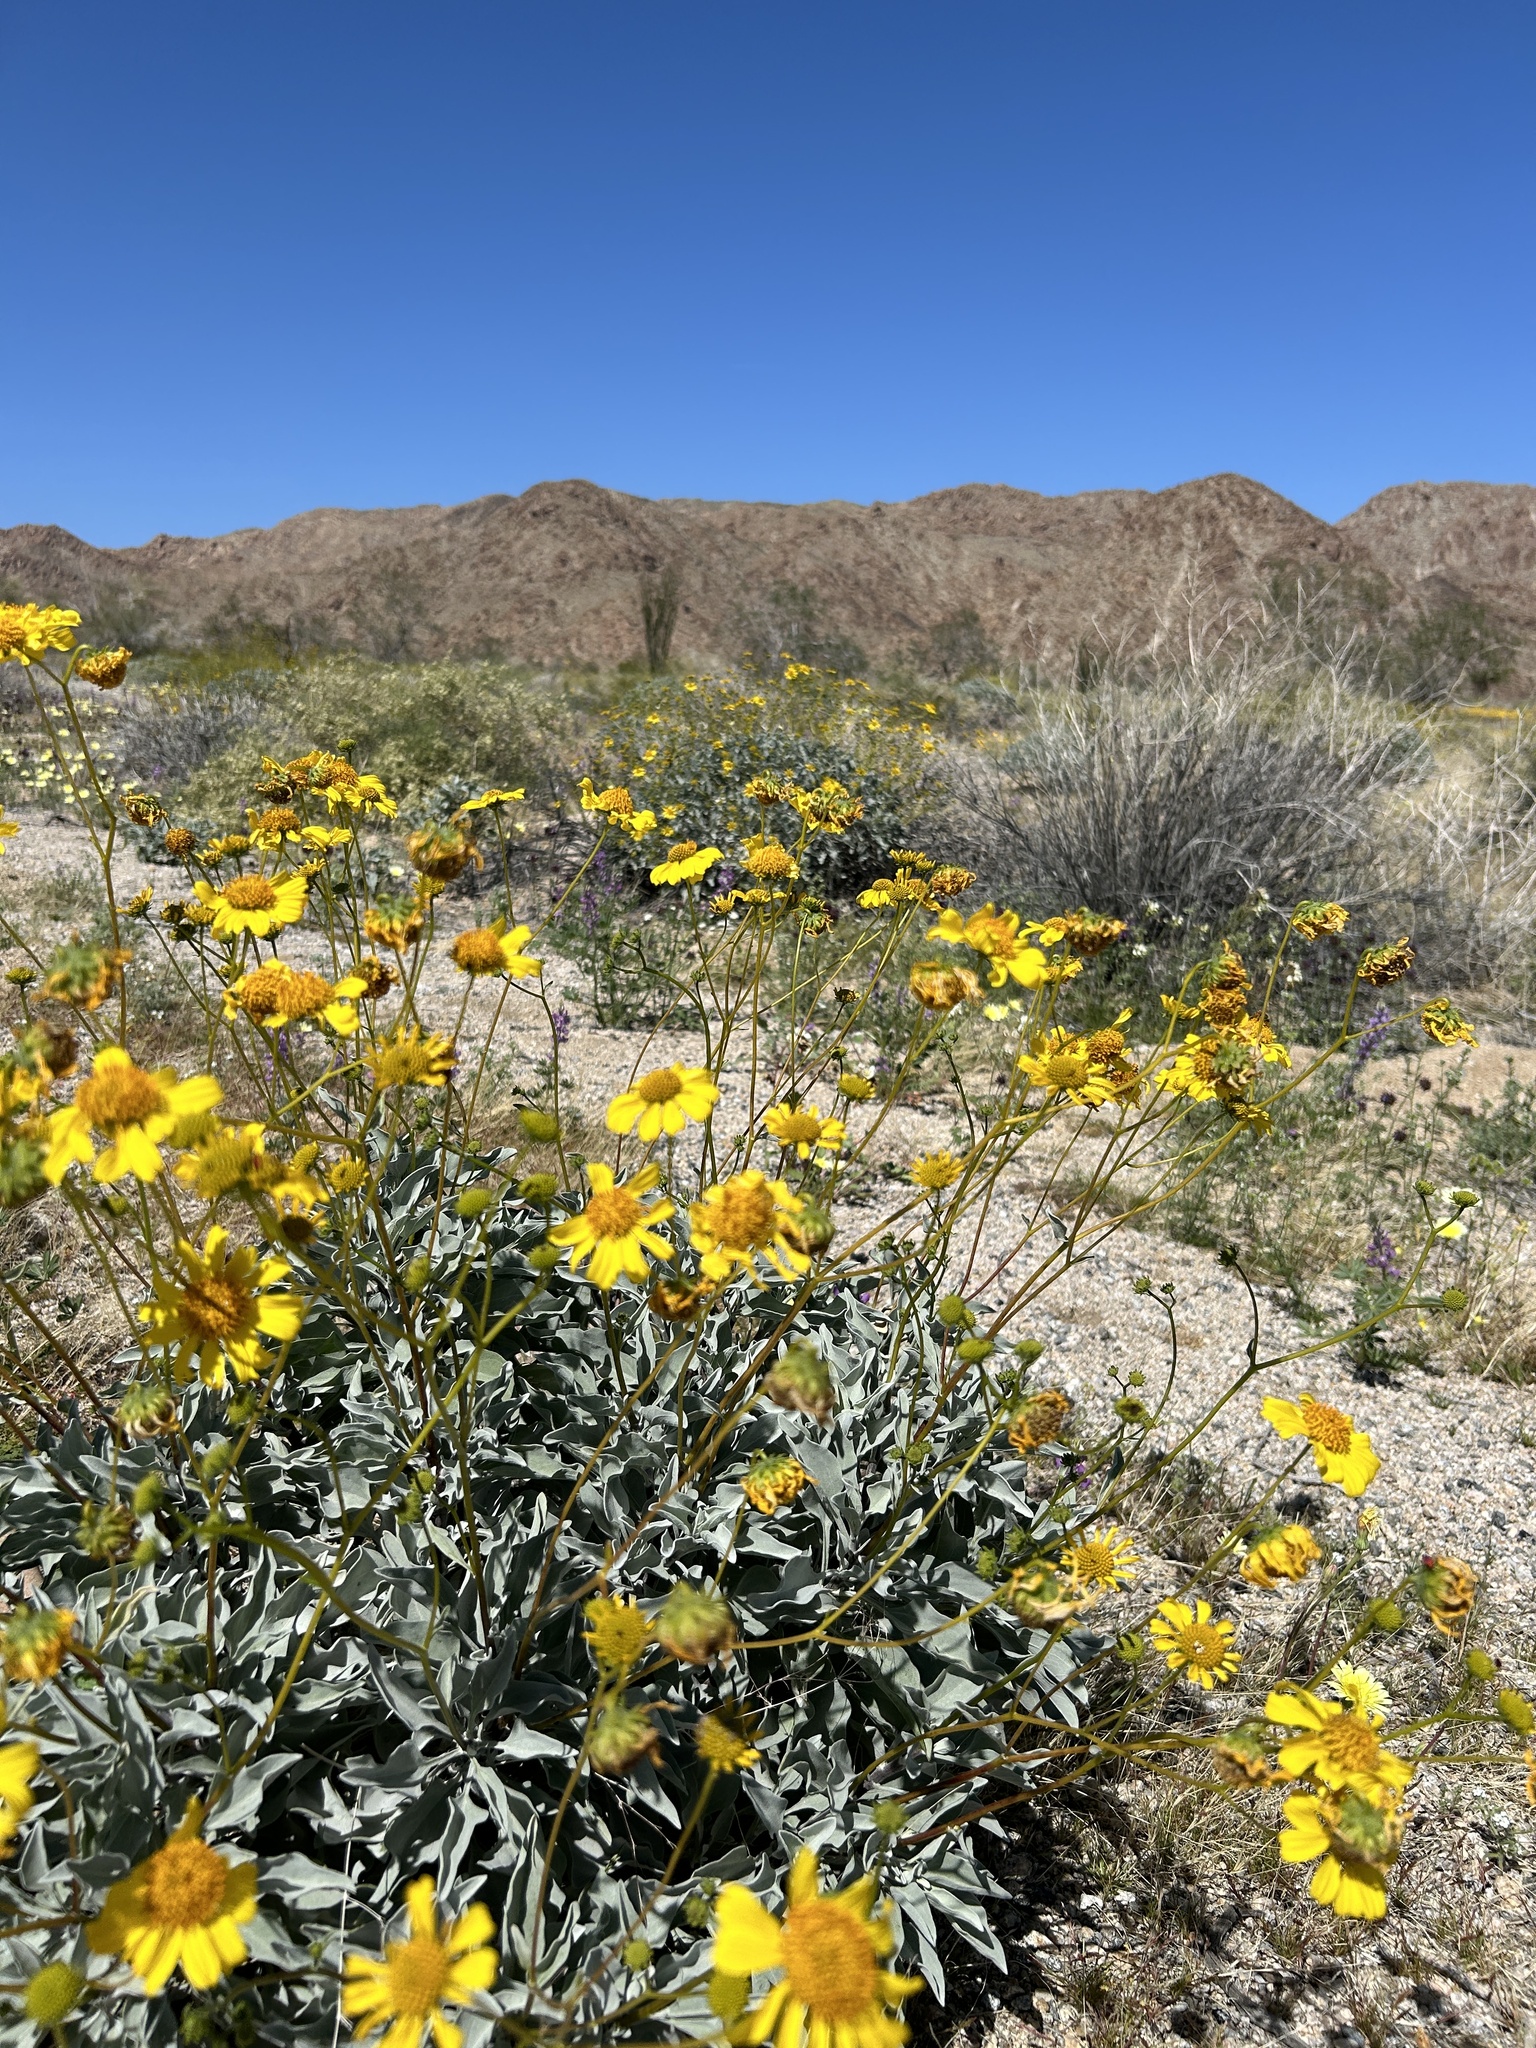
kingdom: Plantae
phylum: Tracheophyta
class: Magnoliopsida
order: Asterales
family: Asteraceae
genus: Encelia
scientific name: Encelia farinosa
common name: Brittlebush
